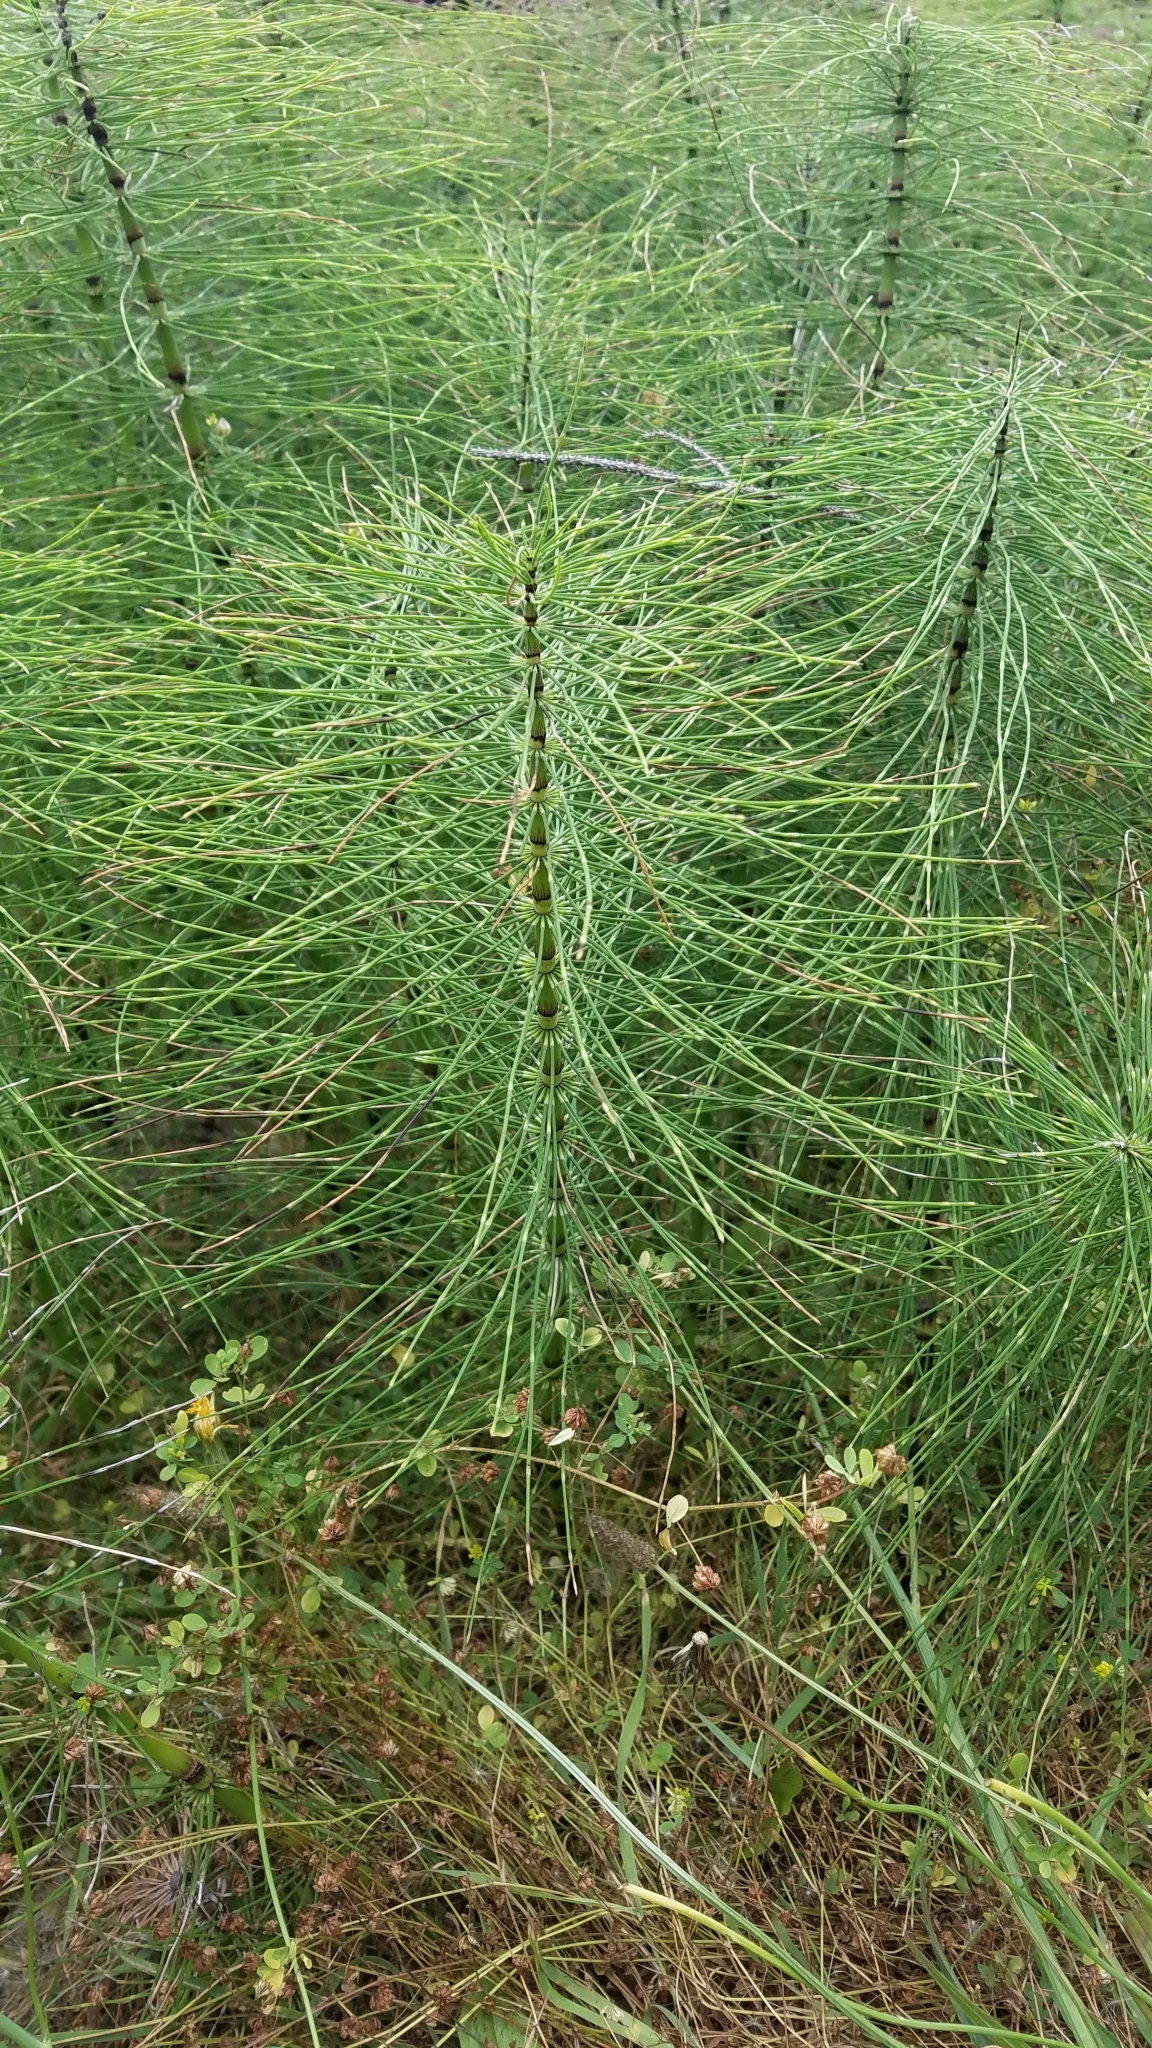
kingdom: Plantae
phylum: Tracheophyta
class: Polypodiopsida
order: Equisetales
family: Equisetaceae
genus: Equisetum
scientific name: Equisetum telmateia
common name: Great horsetail
